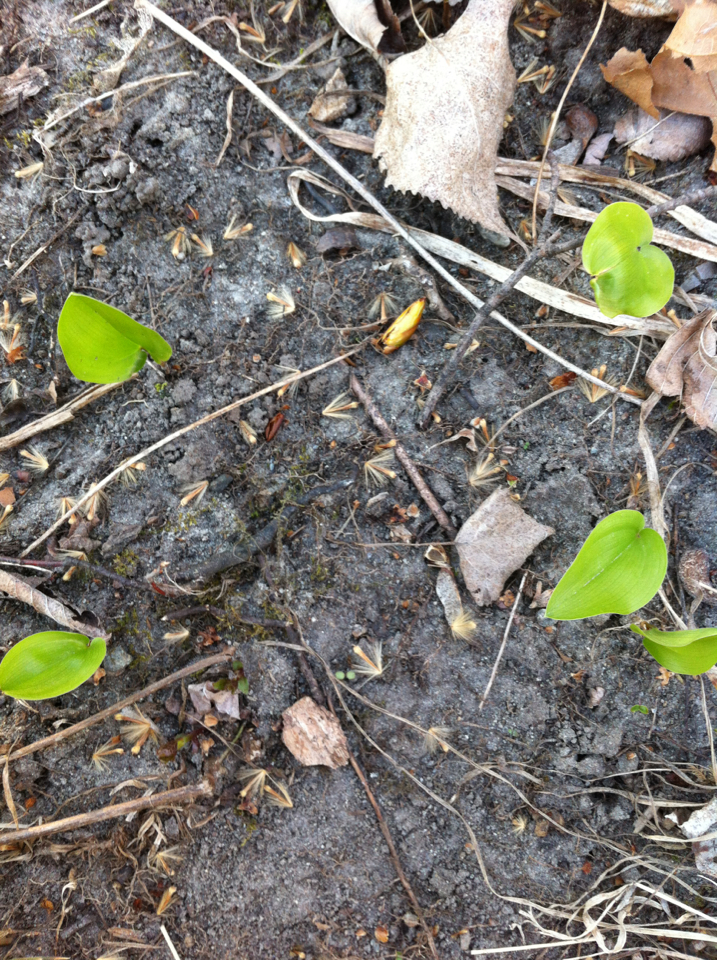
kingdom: Plantae
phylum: Tracheophyta
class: Liliopsida
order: Asparagales
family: Asparagaceae
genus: Maianthemum
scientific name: Maianthemum canadense
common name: False lily-of-the-valley
